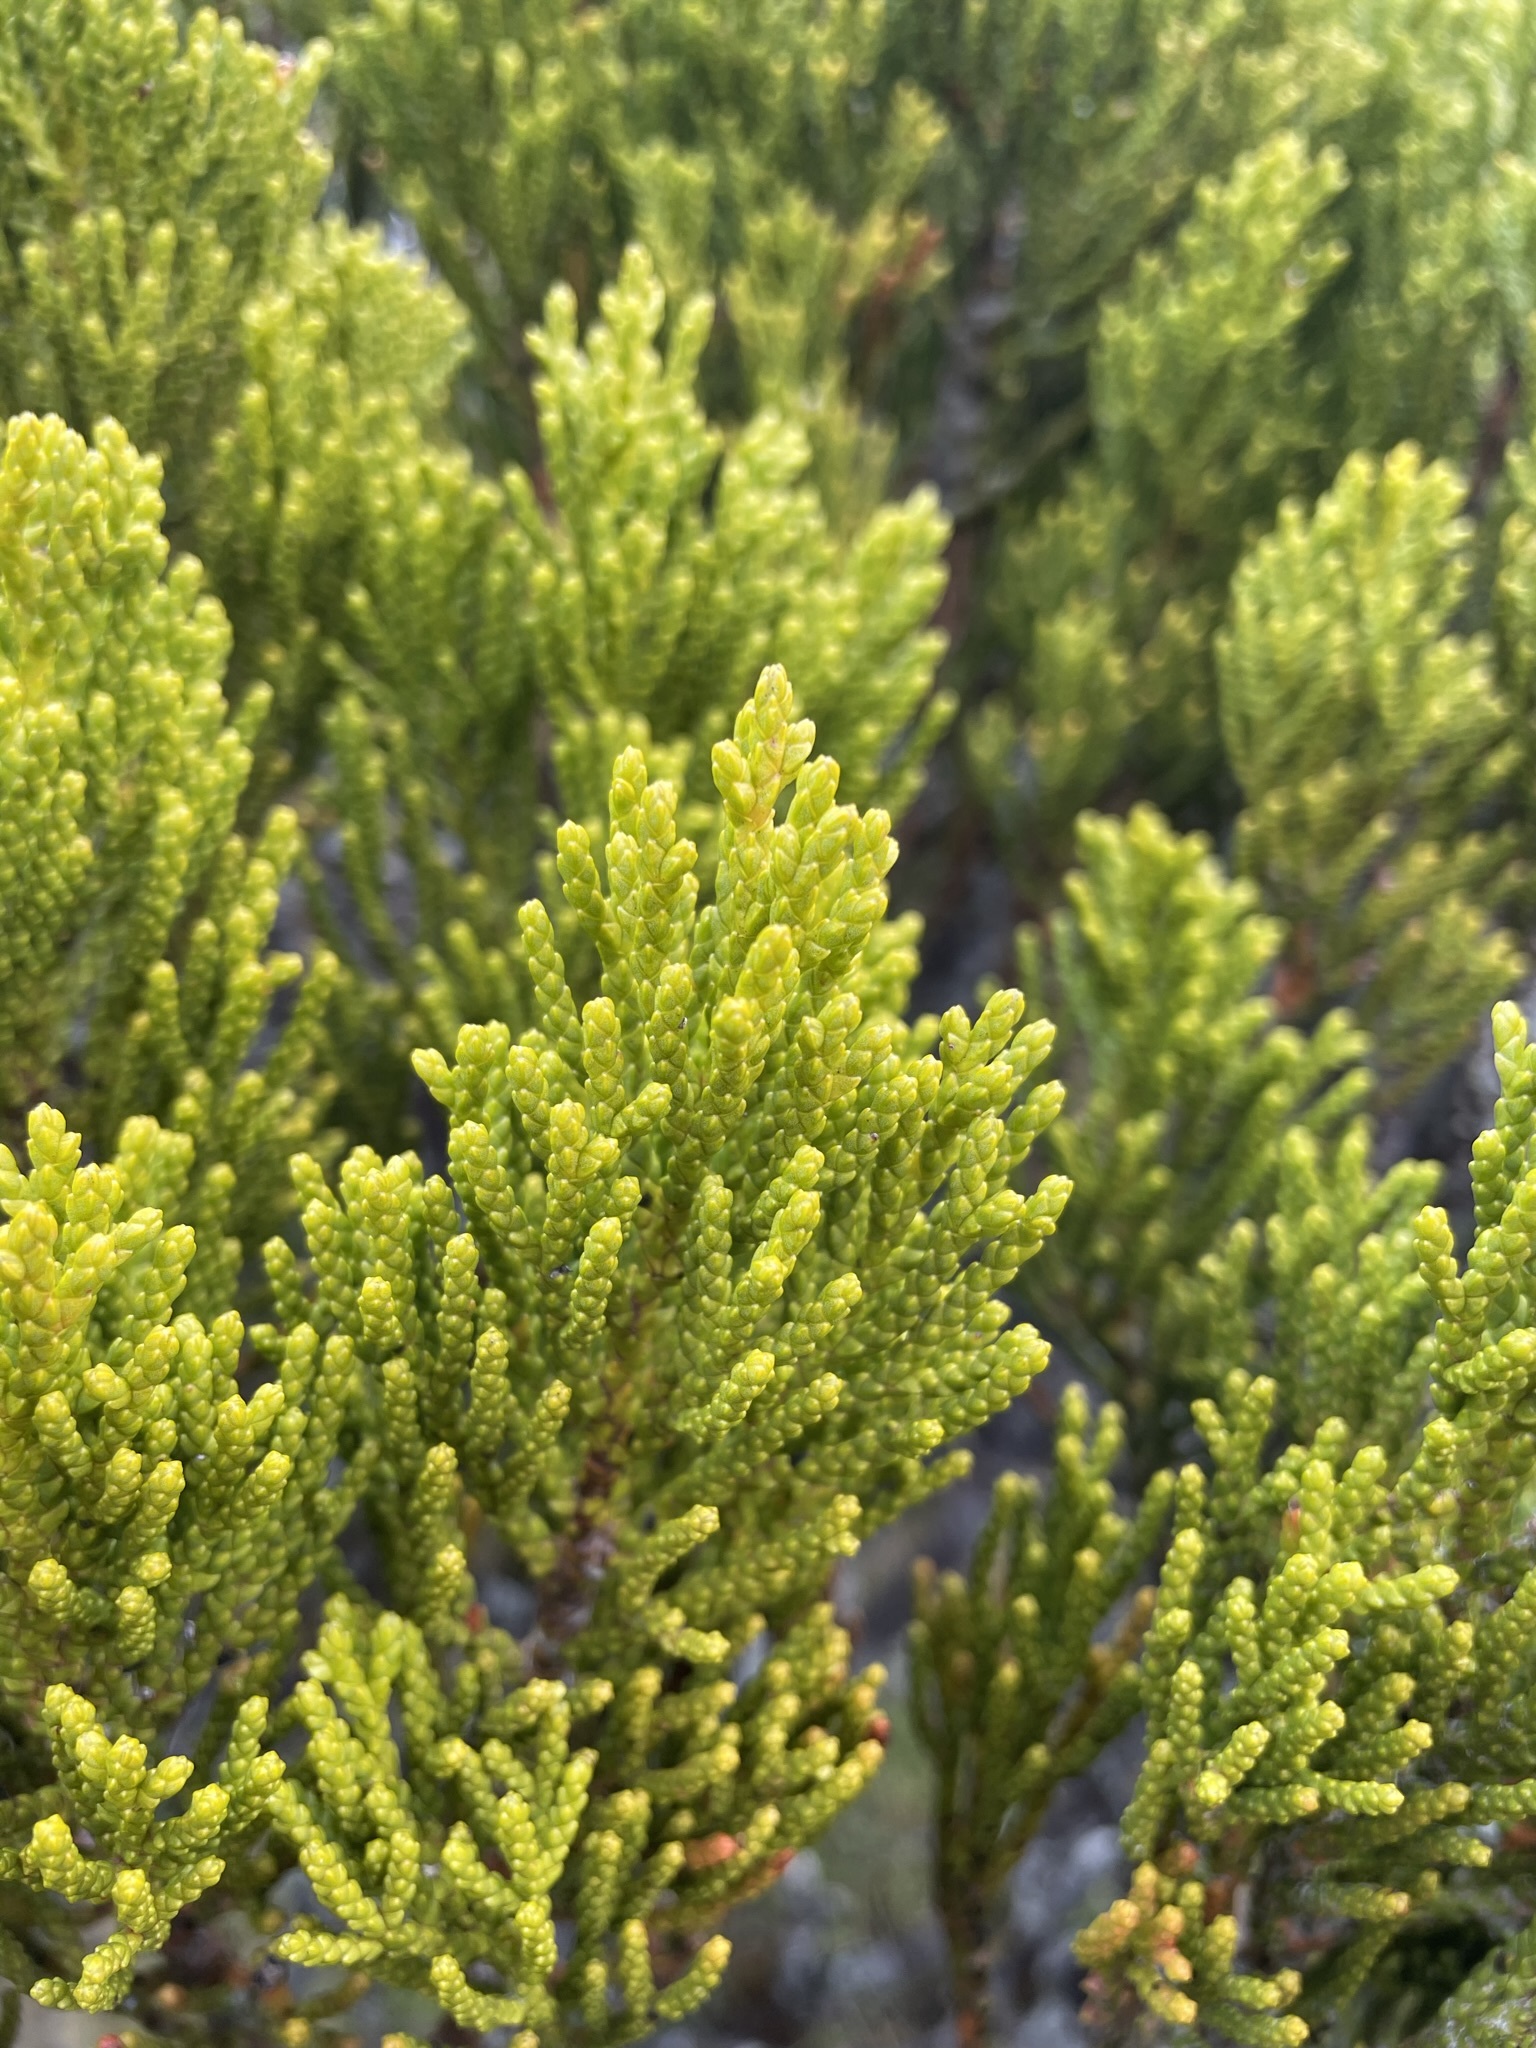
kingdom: Plantae
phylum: Tracheophyta
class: Pinopsida
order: Pinales
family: Podocarpaceae
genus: Halocarpus
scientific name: Halocarpus biformis
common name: Alpine tarwood
